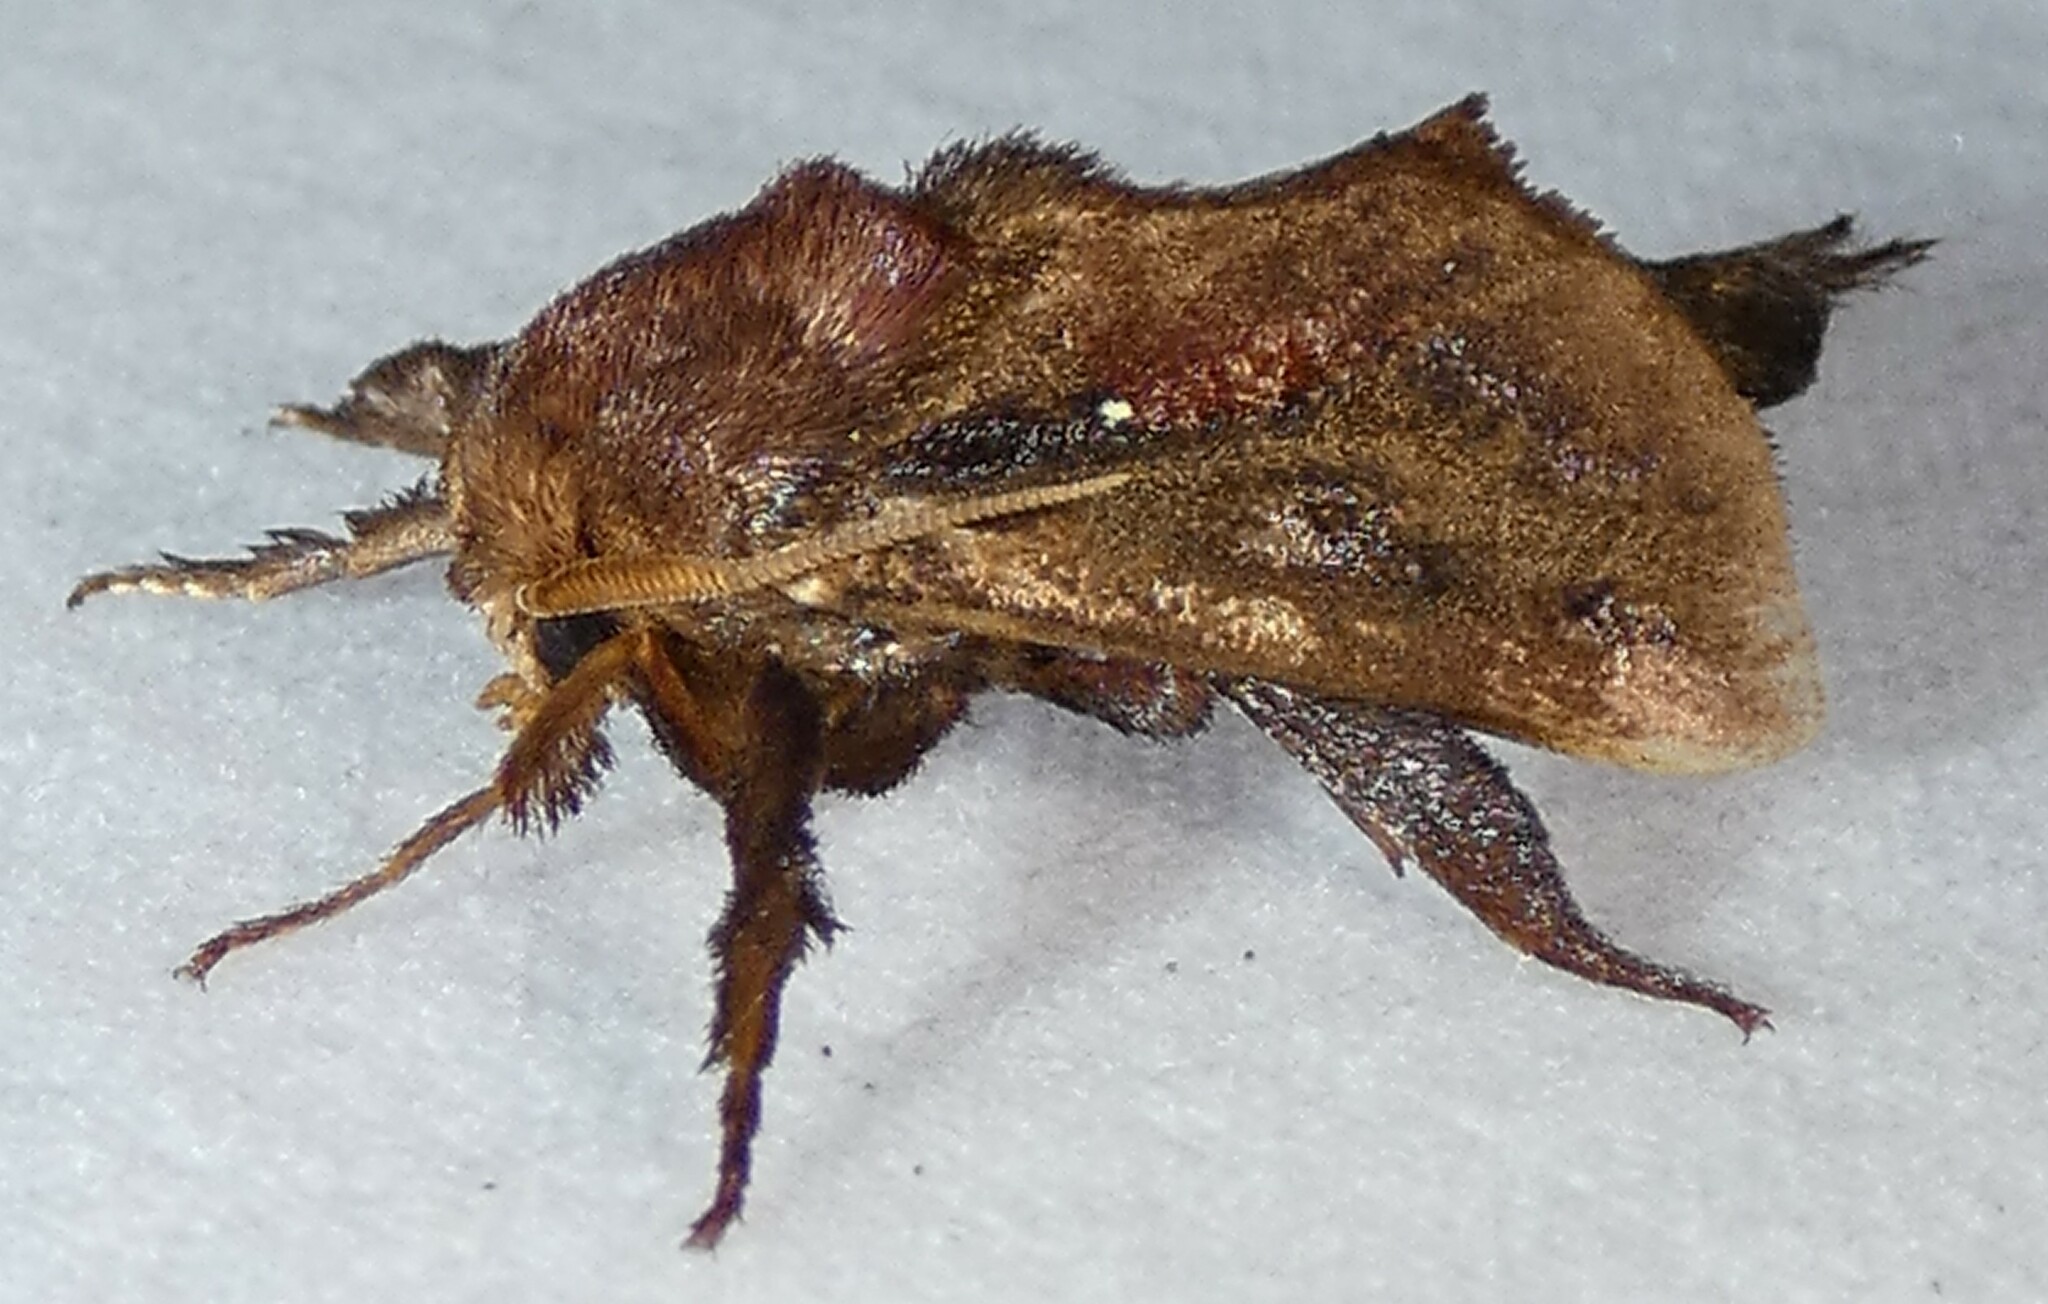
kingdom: Animalia
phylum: Arthropoda
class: Insecta
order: Lepidoptera
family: Limacodidae
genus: Acharia
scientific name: Acharia stimulea
